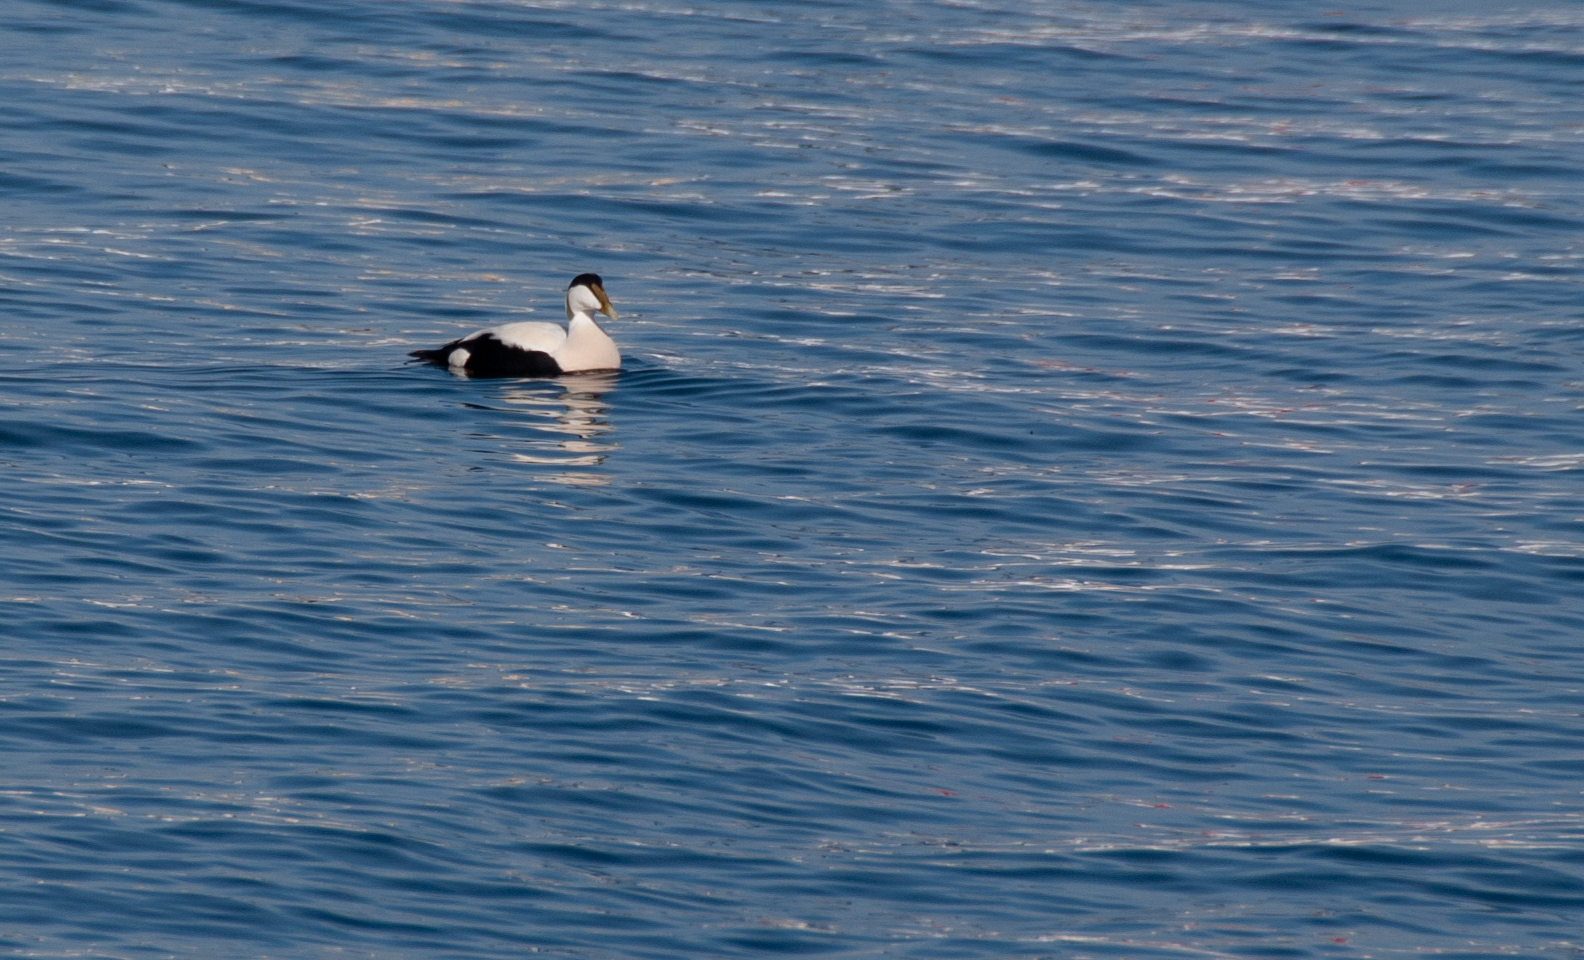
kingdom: Animalia
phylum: Chordata
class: Aves
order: Anseriformes
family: Anatidae
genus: Somateria
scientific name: Somateria mollissima
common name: Common eider
